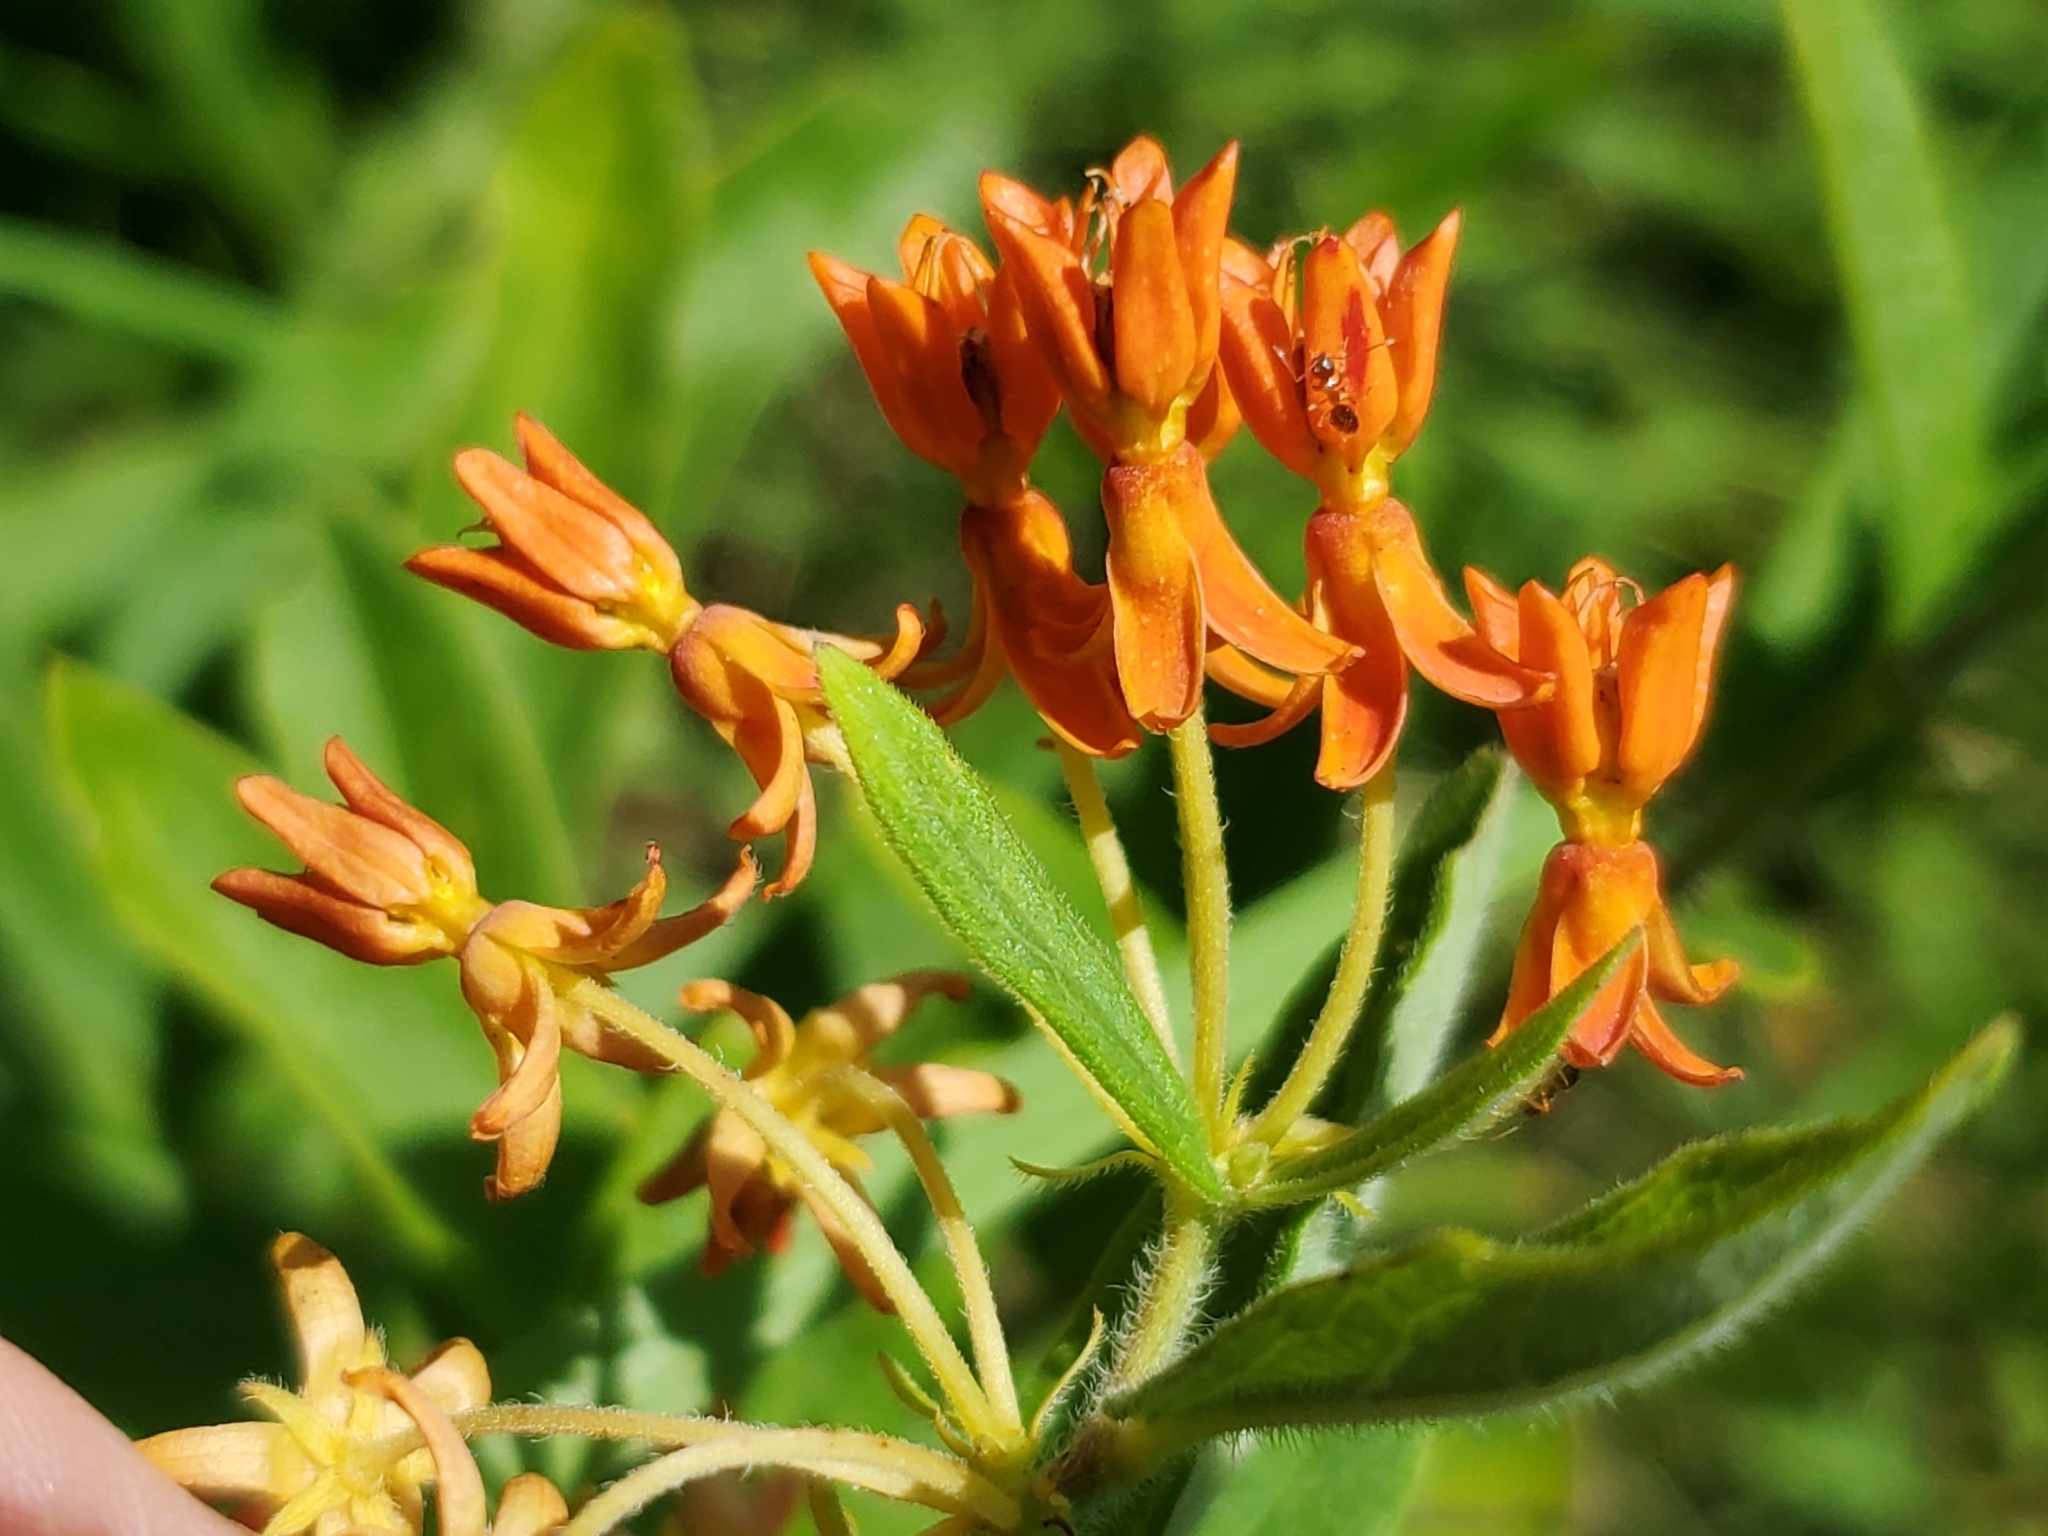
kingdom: Plantae
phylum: Tracheophyta
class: Magnoliopsida
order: Gentianales
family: Apocynaceae
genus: Asclepias
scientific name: Asclepias tuberosa
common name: Butterfly milkweed
